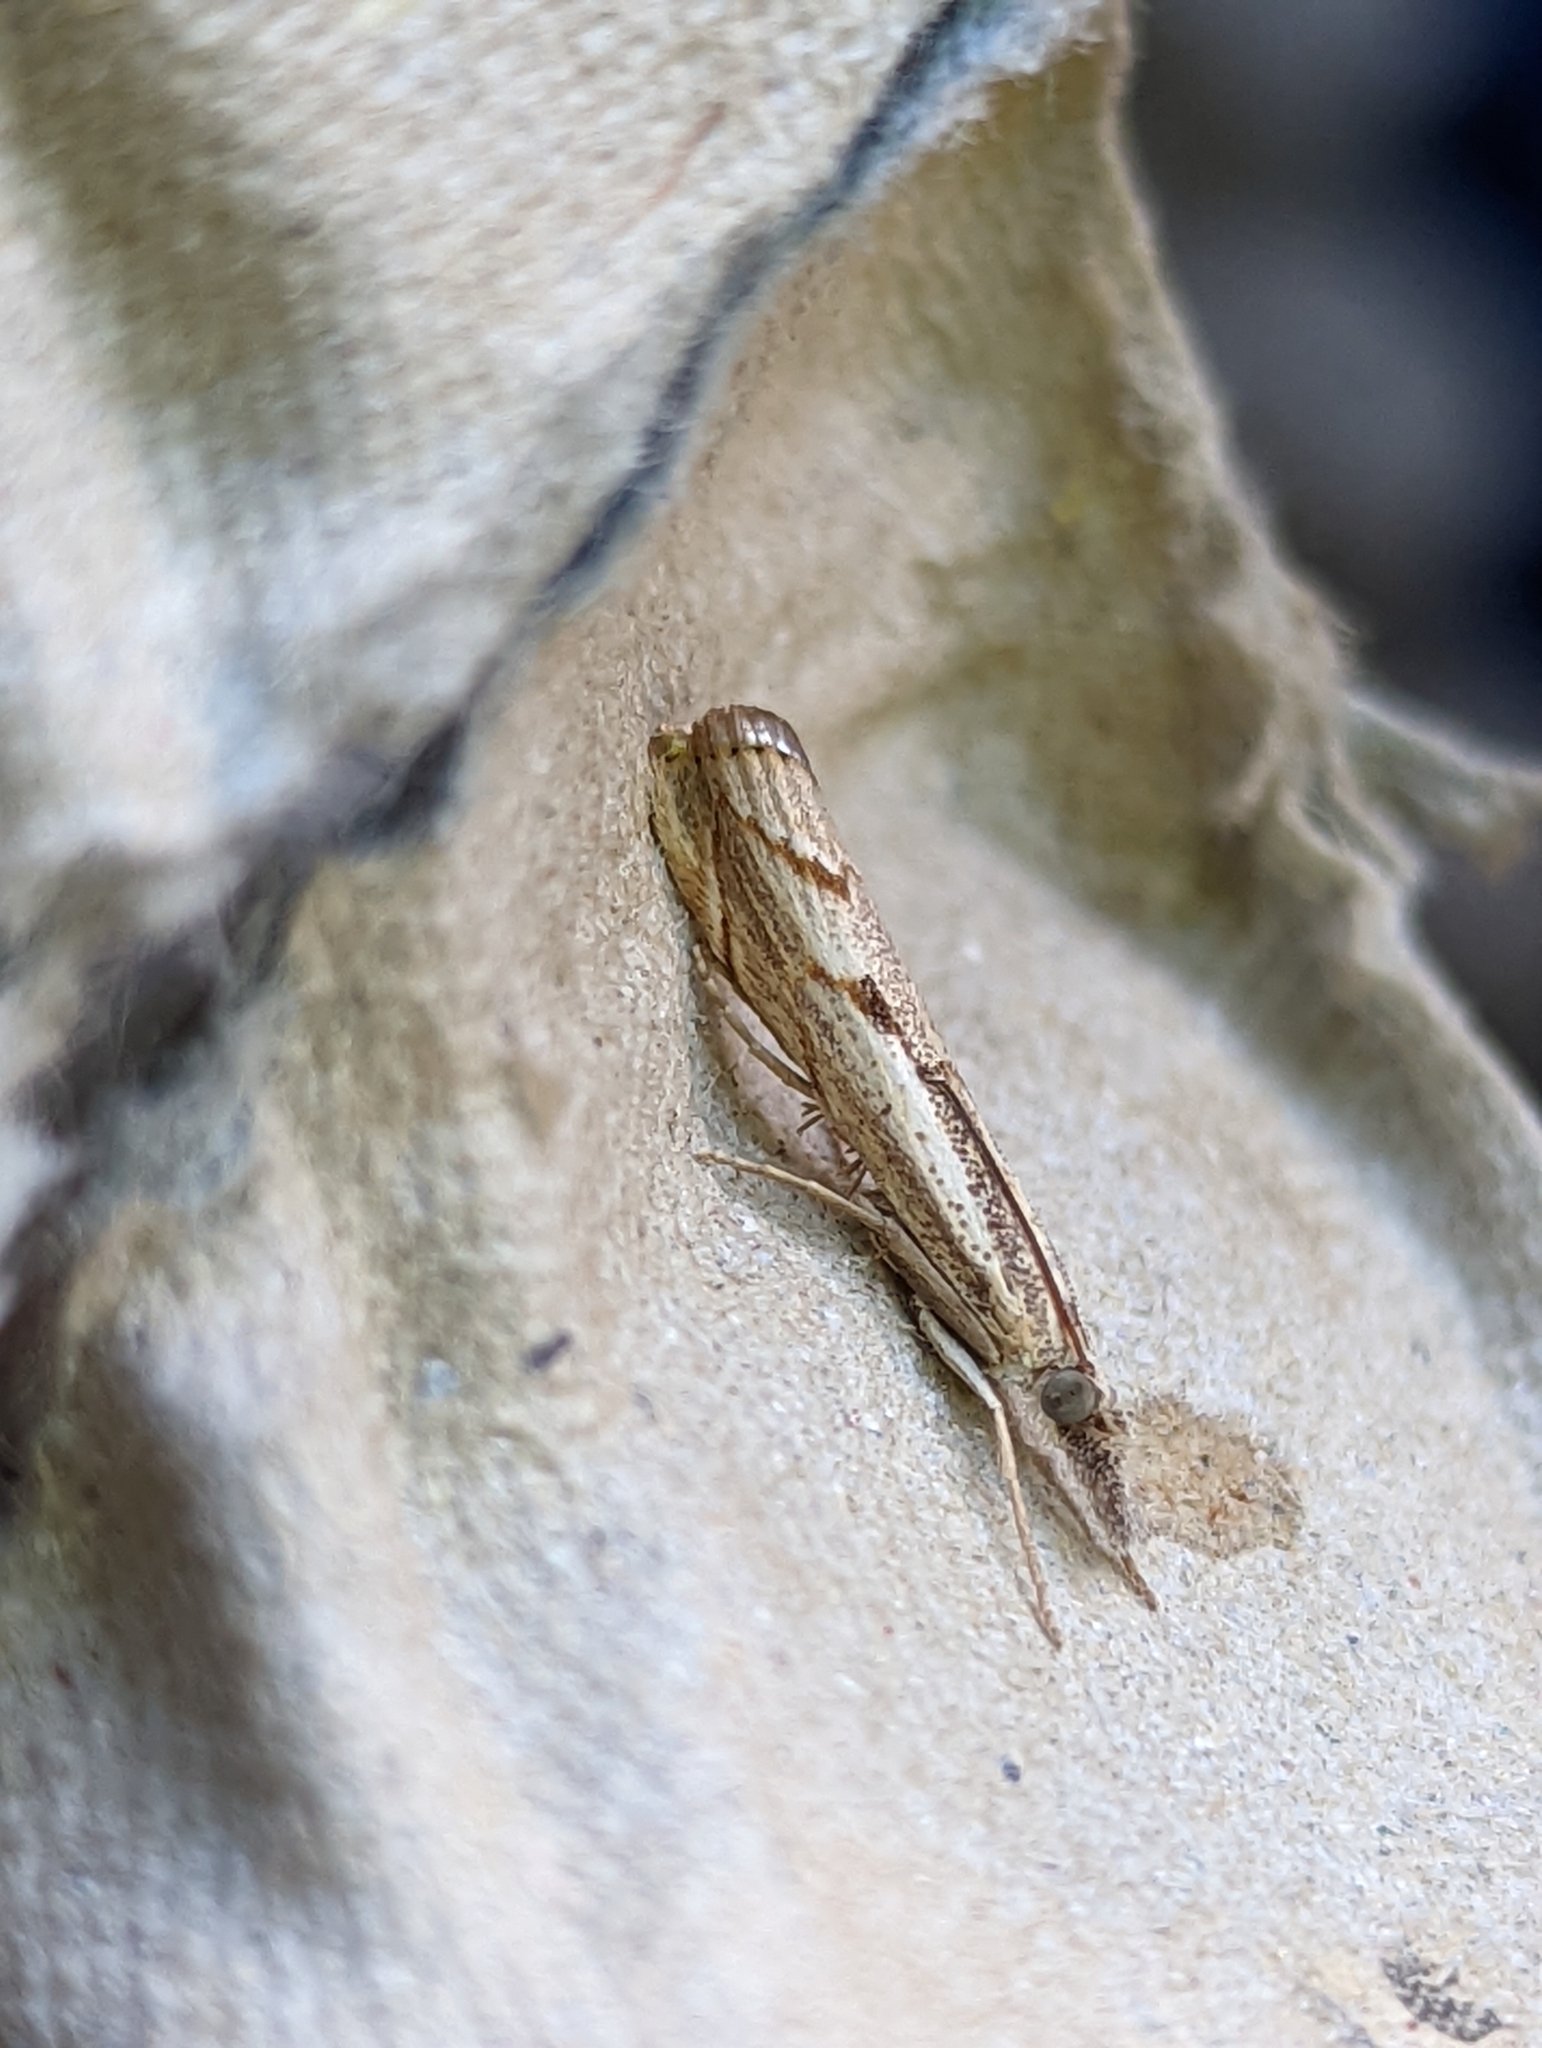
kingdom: Animalia
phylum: Arthropoda
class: Insecta
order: Lepidoptera
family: Crambidae
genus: Agriphila
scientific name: Agriphila geniculea
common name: Elbow-stripe grass-veneer
